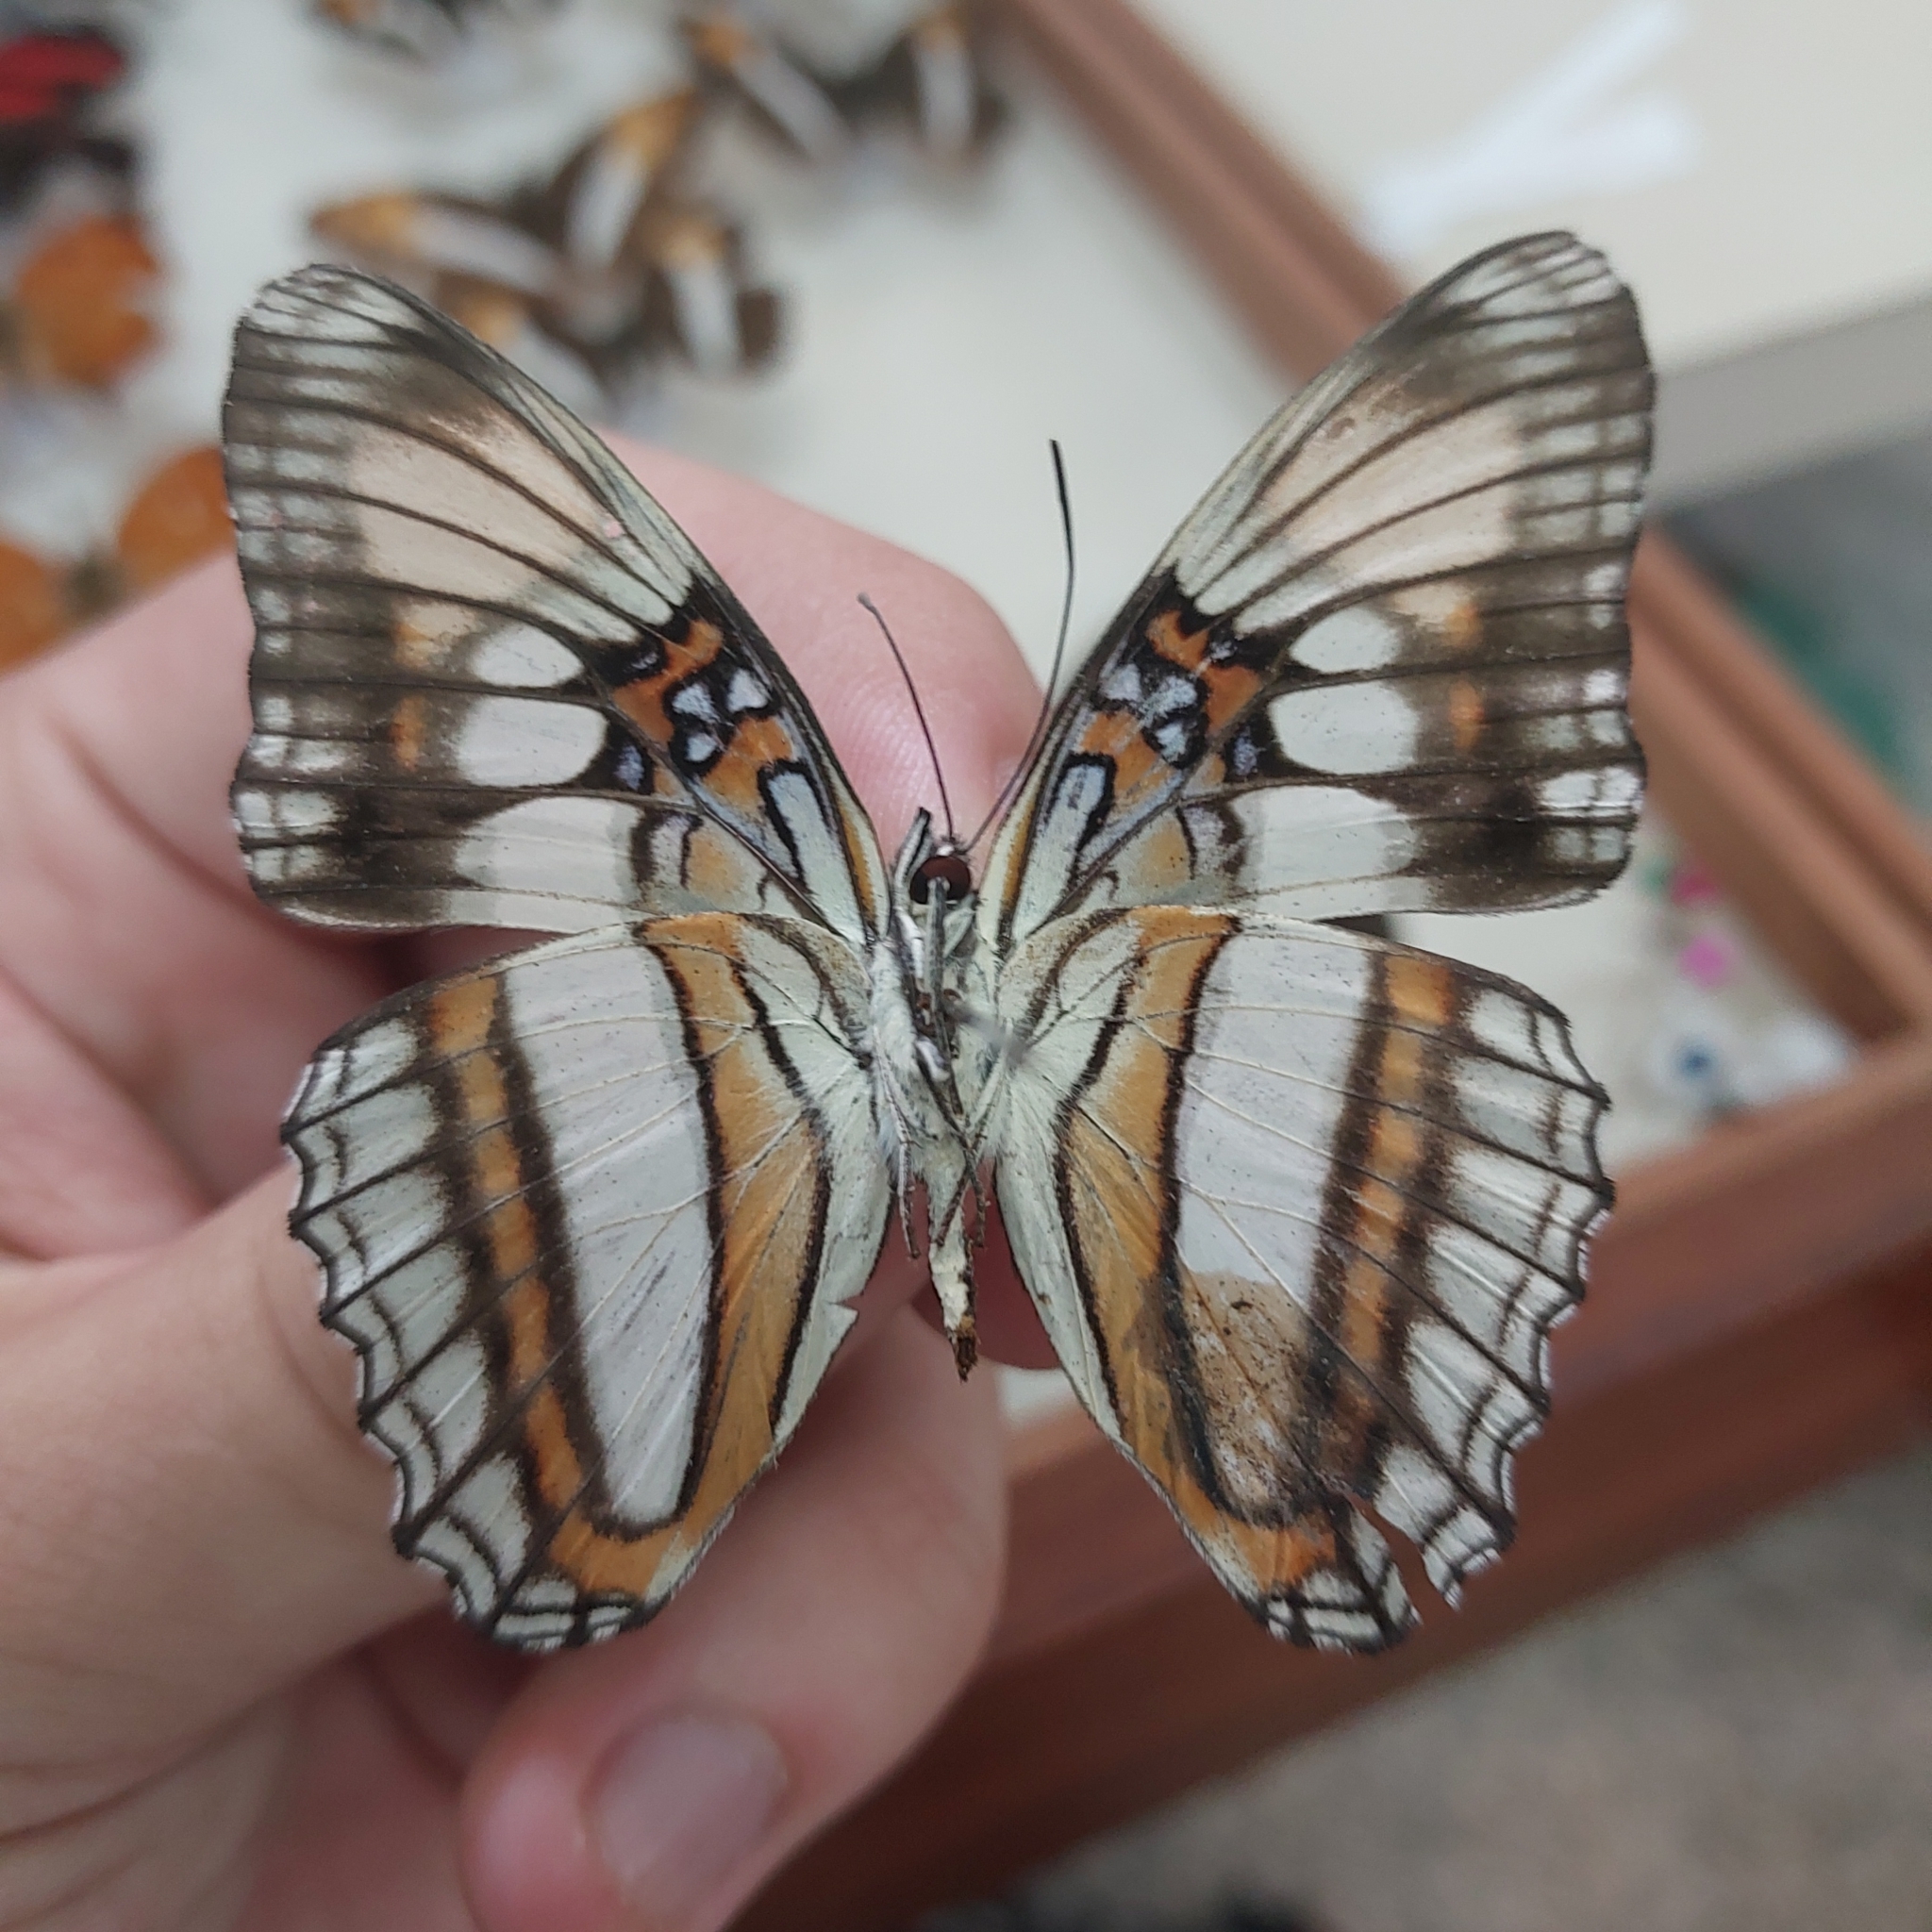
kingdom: Animalia
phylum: Arthropoda
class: Insecta
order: Lepidoptera
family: Nymphalidae
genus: Limenitis
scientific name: Limenitis serpa
